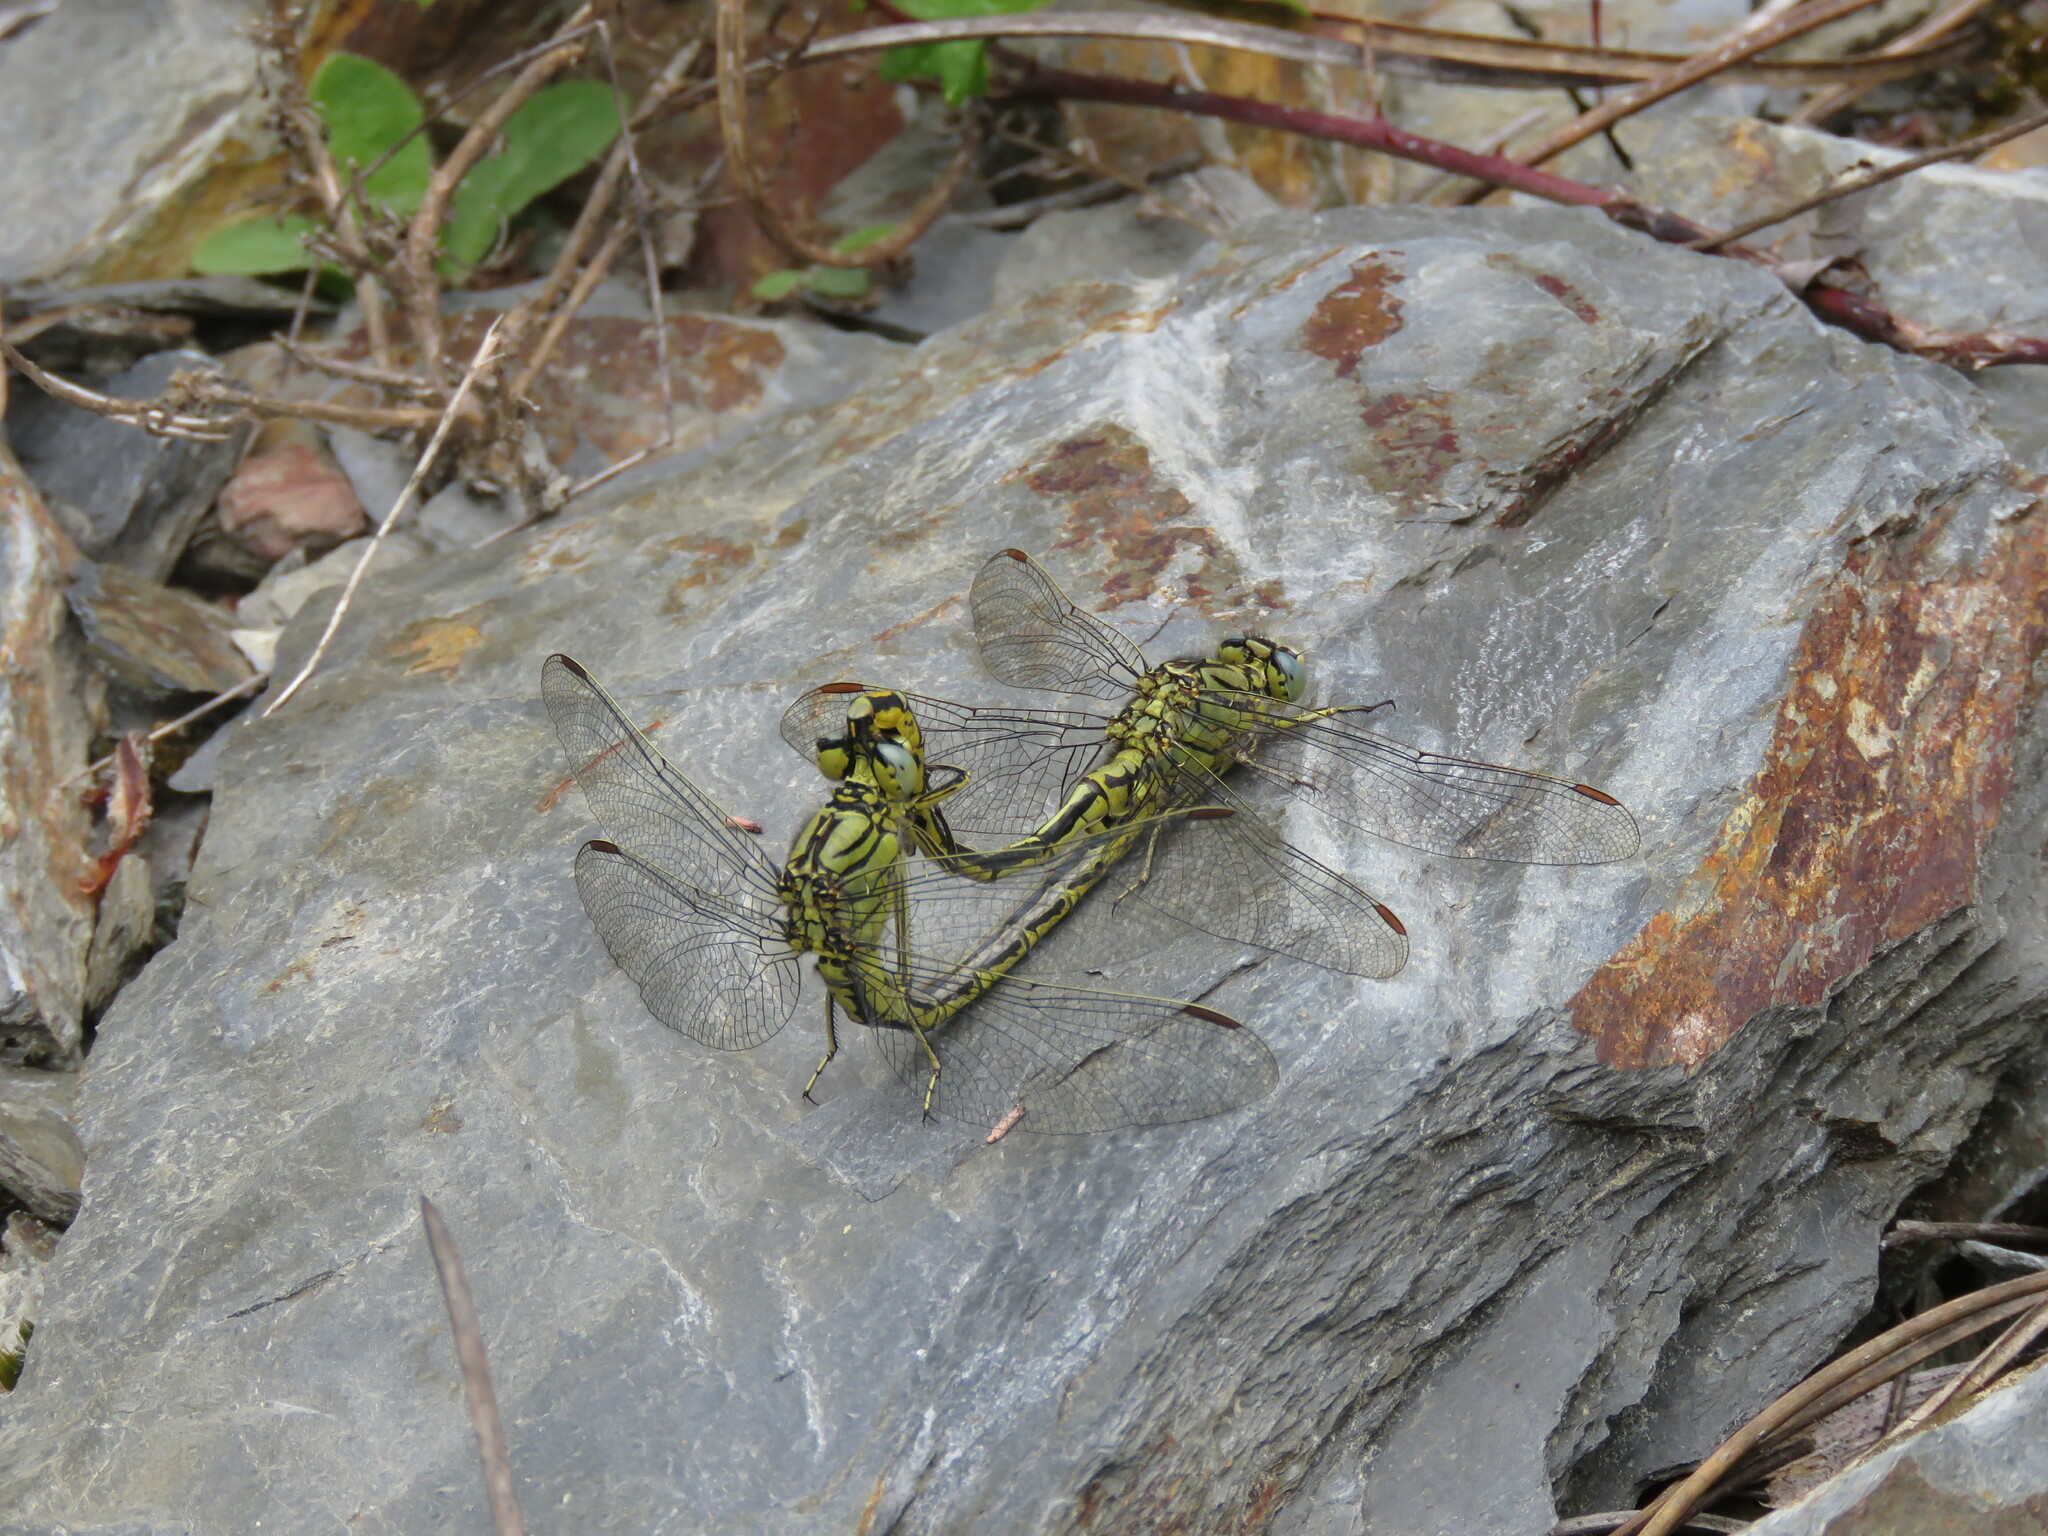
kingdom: Animalia
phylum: Arthropoda
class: Insecta
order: Odonata
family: Gomphidae
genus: Gomphus
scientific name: Gomphus pulchellus
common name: Western clubtail
